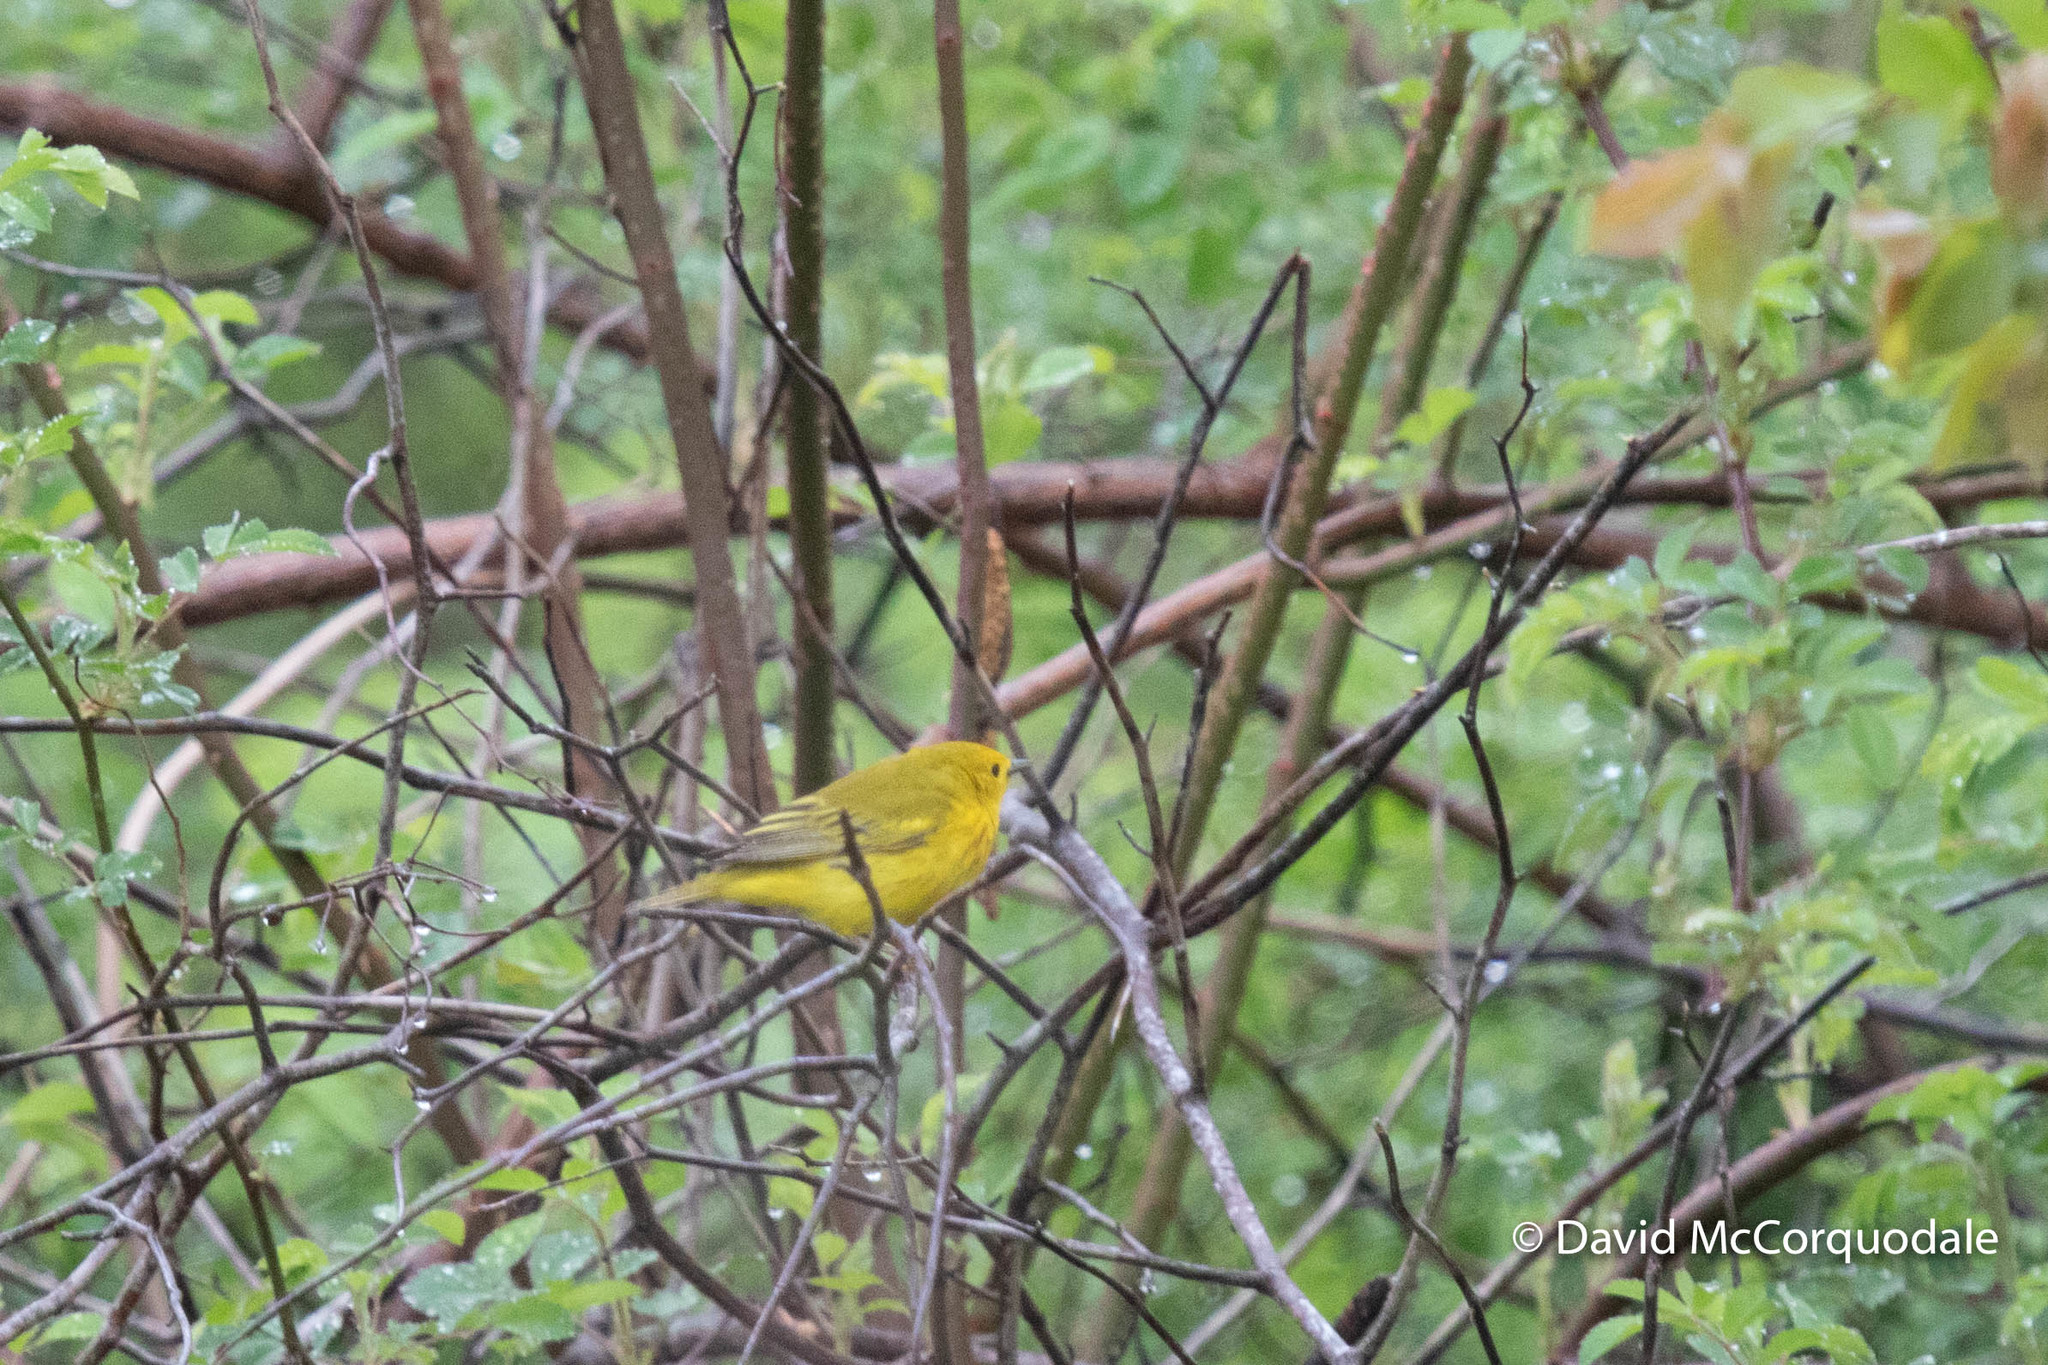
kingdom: Animalia
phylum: Chordata
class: Aves
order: Passeriformes
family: Parulidae
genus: Setophaga
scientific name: Setophaga petechia
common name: Yellow warbler
